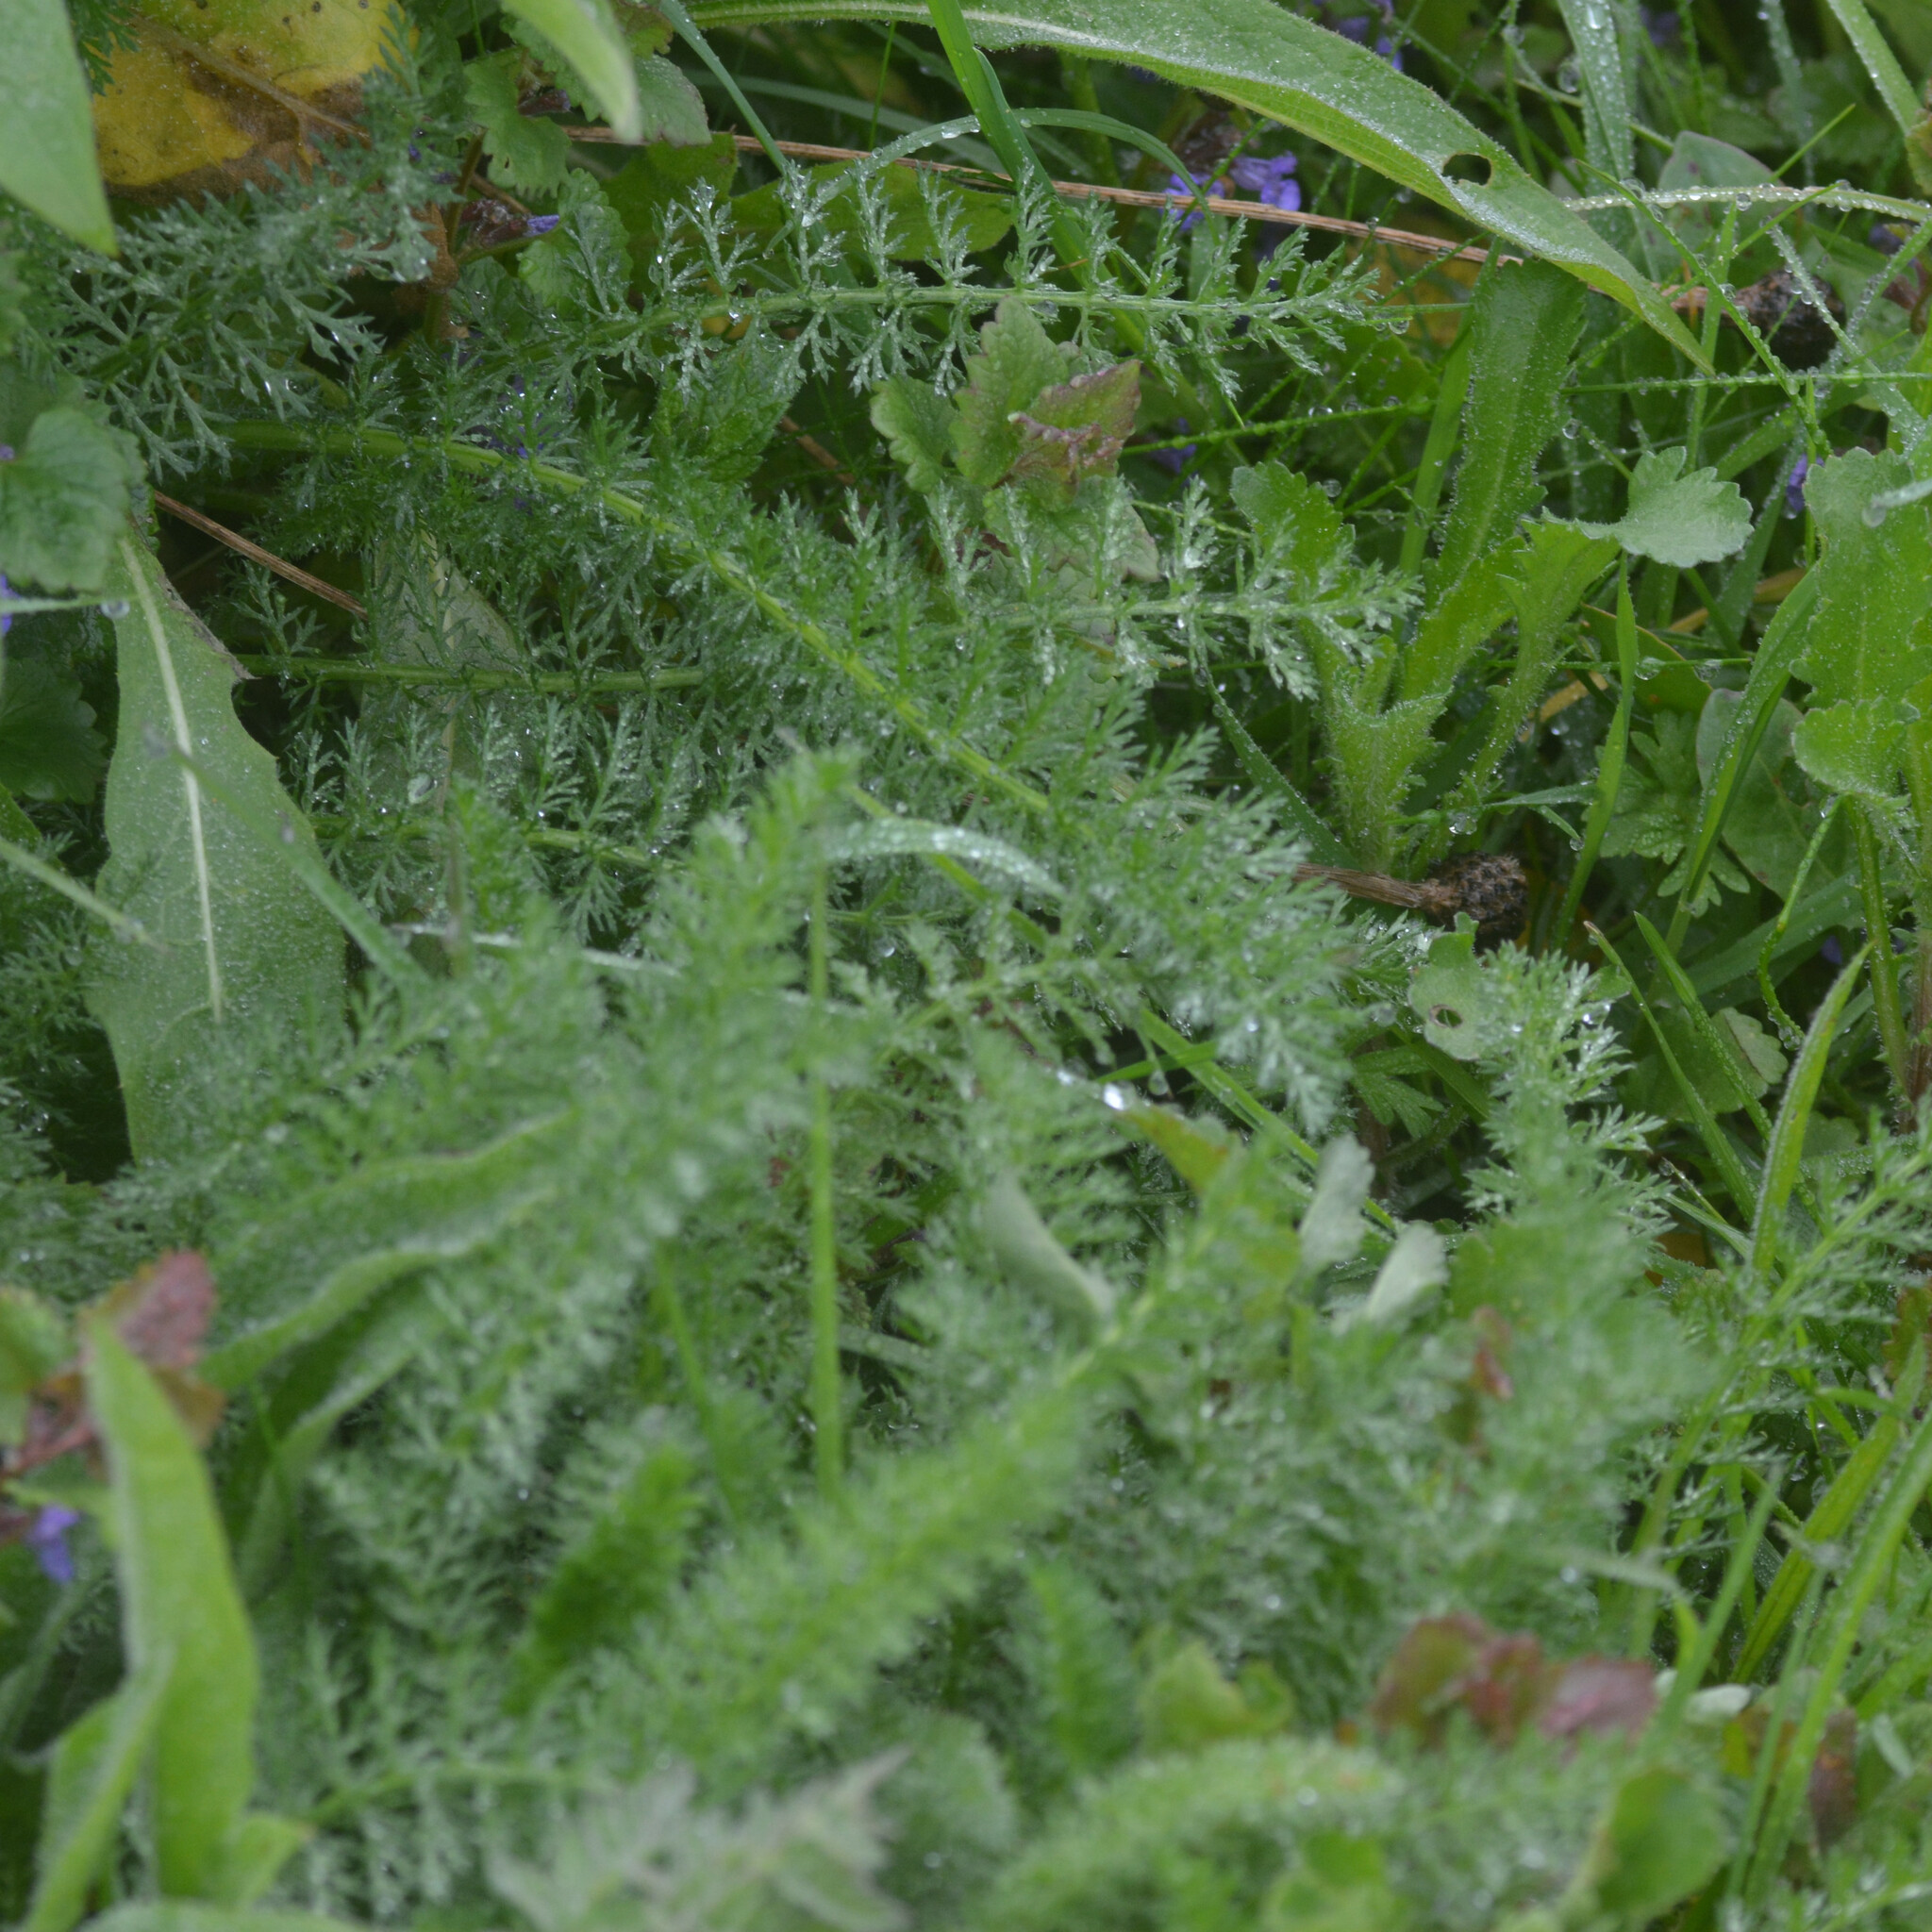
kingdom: Plantae
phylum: Tracheophyta
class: Magnoliopsida
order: Asterales
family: Asteraceae
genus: Achillea
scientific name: Achillea millefolium
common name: Yarrow
